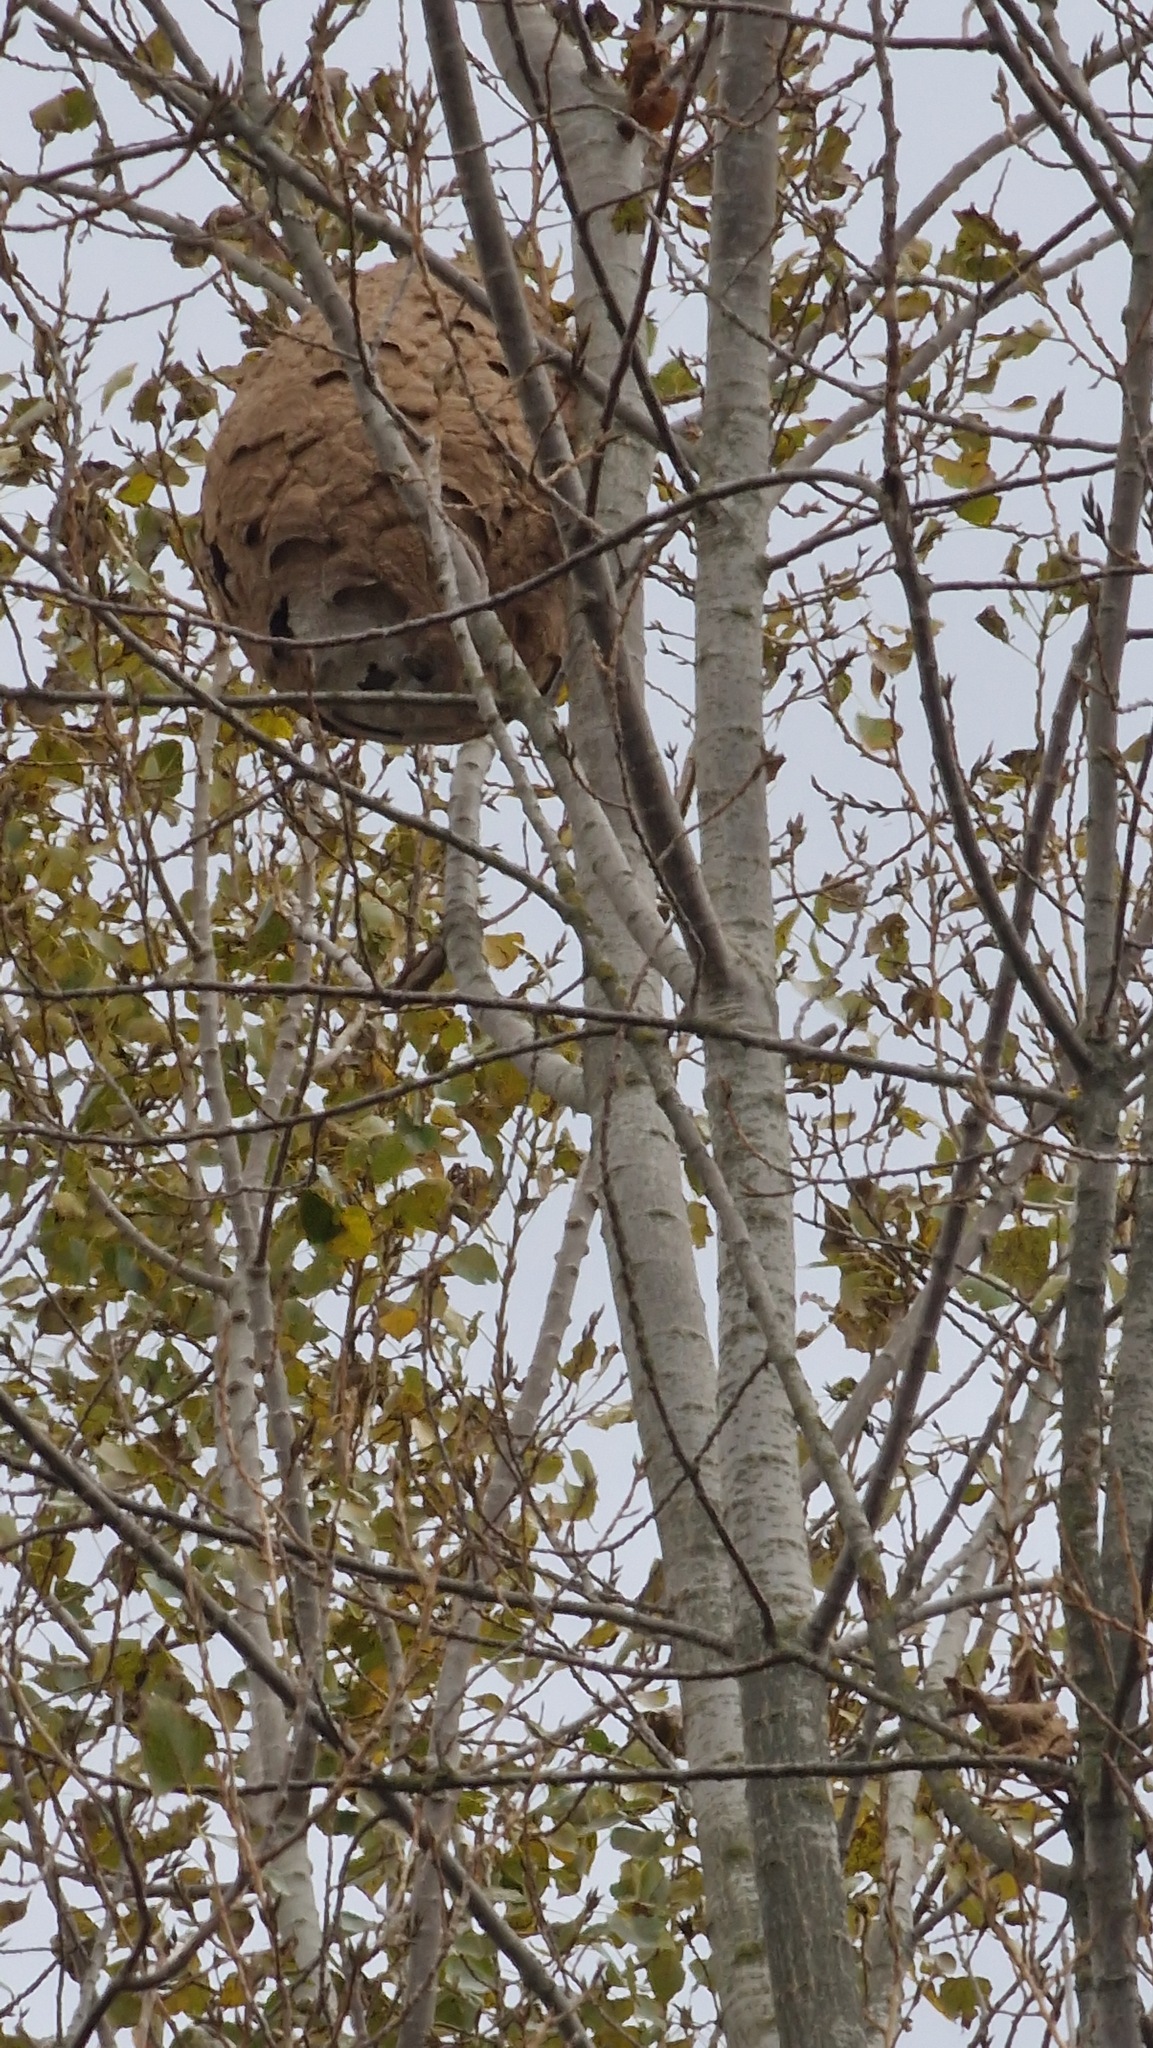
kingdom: Animalia
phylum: Arthropoda
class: Insecta
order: Hymenoptera
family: Vespidae
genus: Vespa
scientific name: Vespa velutina
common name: Asian hornet
